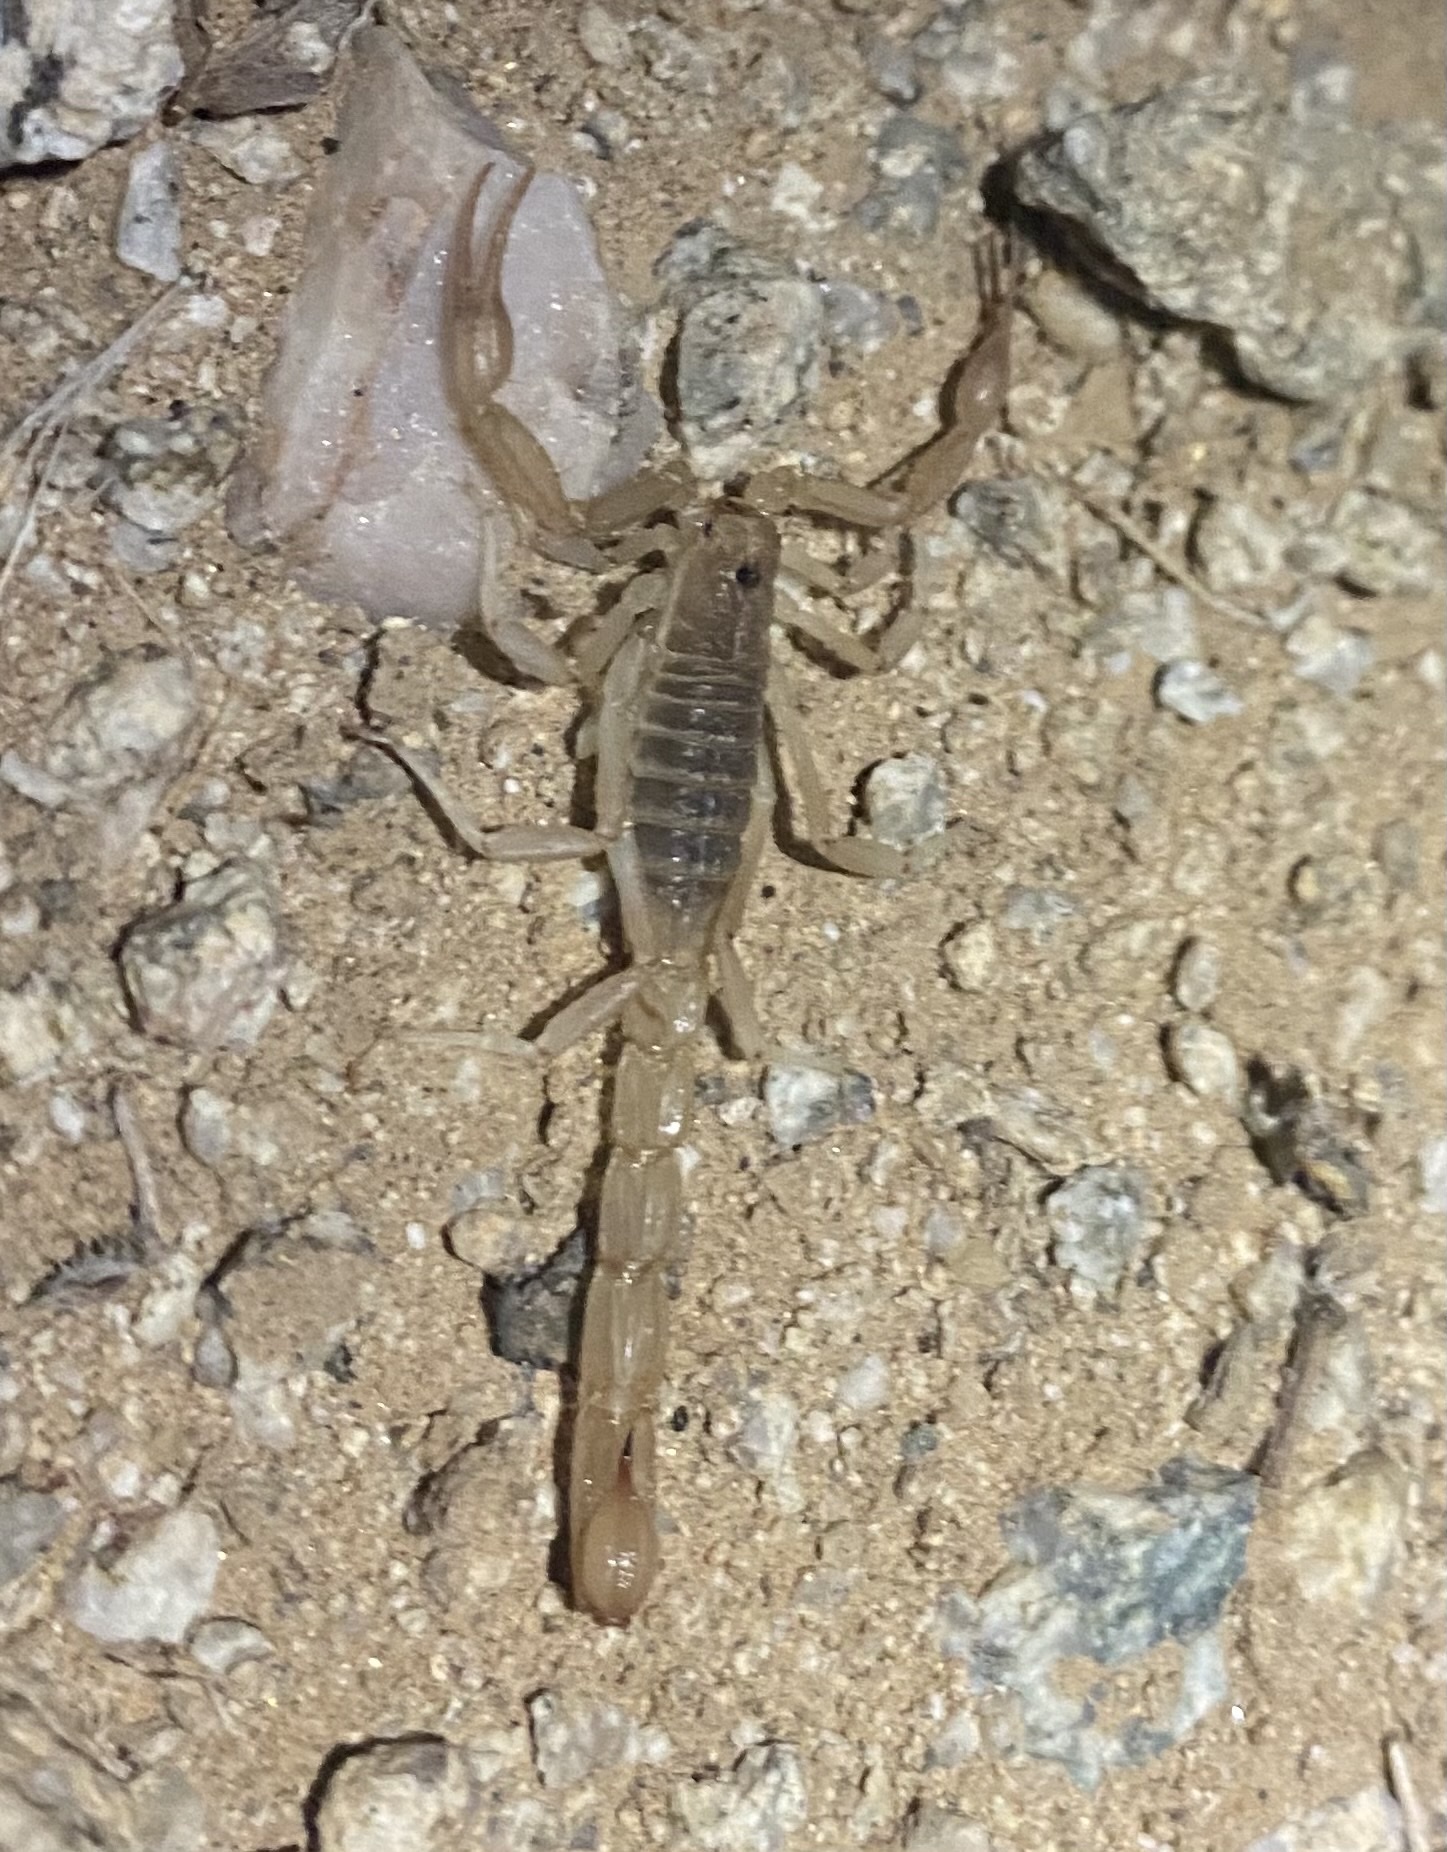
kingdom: Animalia
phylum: Arthropoda
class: Arachnida
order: Scorpiones
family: Vaejovidae
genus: Paravaejovis
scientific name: Paravaejovis confusus
